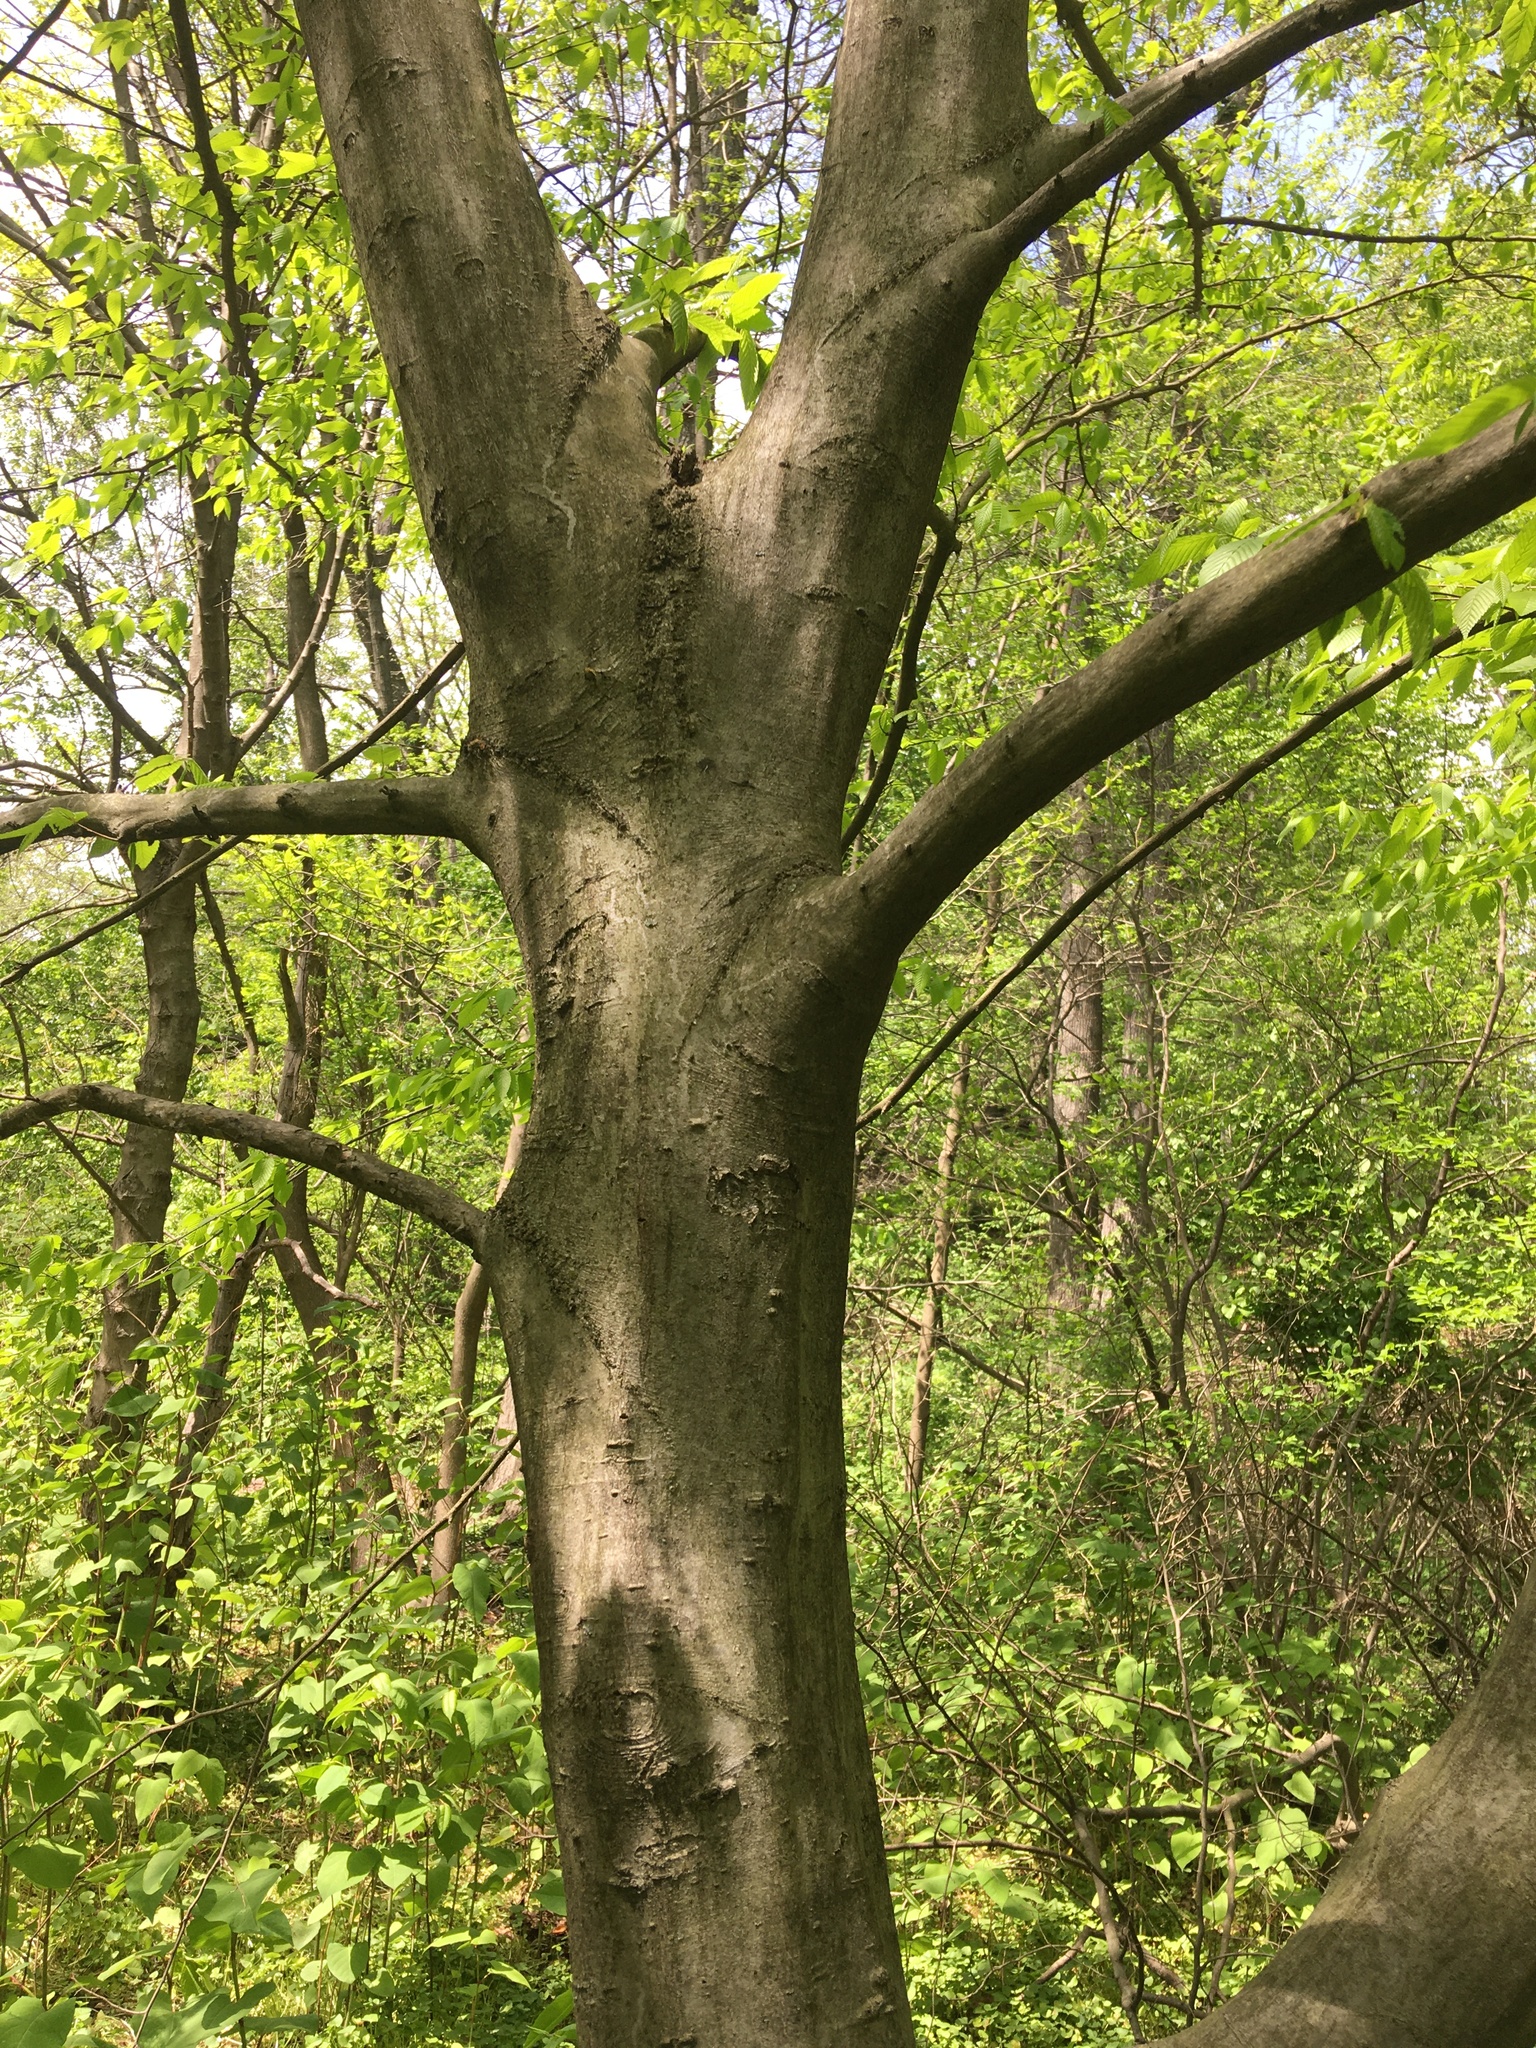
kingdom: Plantae
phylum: Tracheophyta
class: Magnoliopsida
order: Fagales
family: Betulaceae
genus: Carpinus
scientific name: Carpinus caroliniana
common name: American hornbeam
